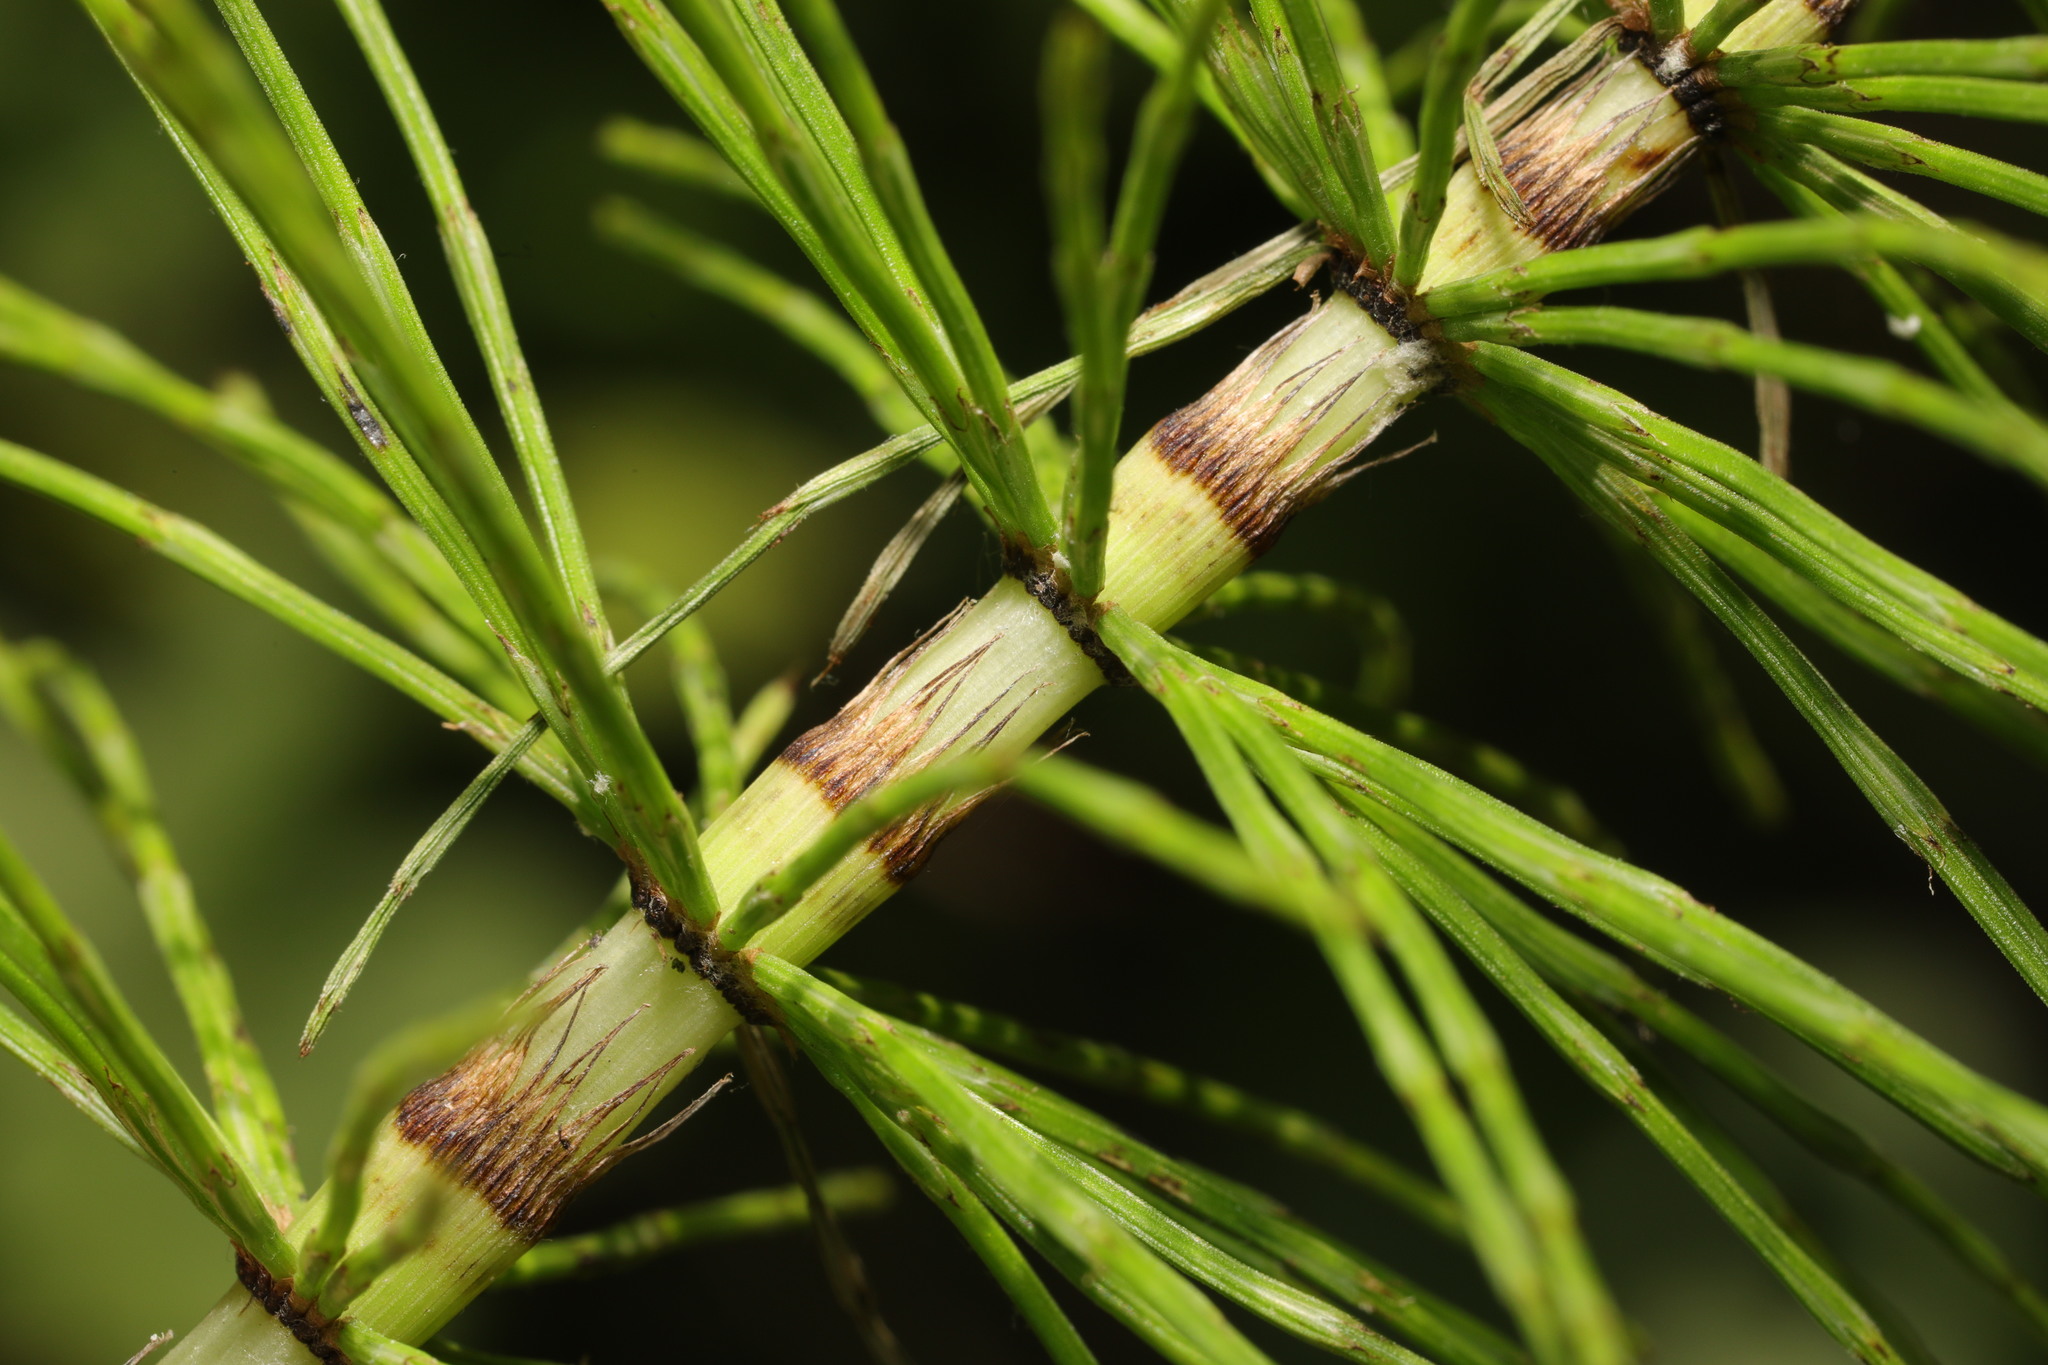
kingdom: Plantae
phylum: Tracheophyta
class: Polypodiopsida
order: Equisetales
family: Equisetaceae
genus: Equisetum
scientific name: Equisetum telmateia
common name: Great horsetail
